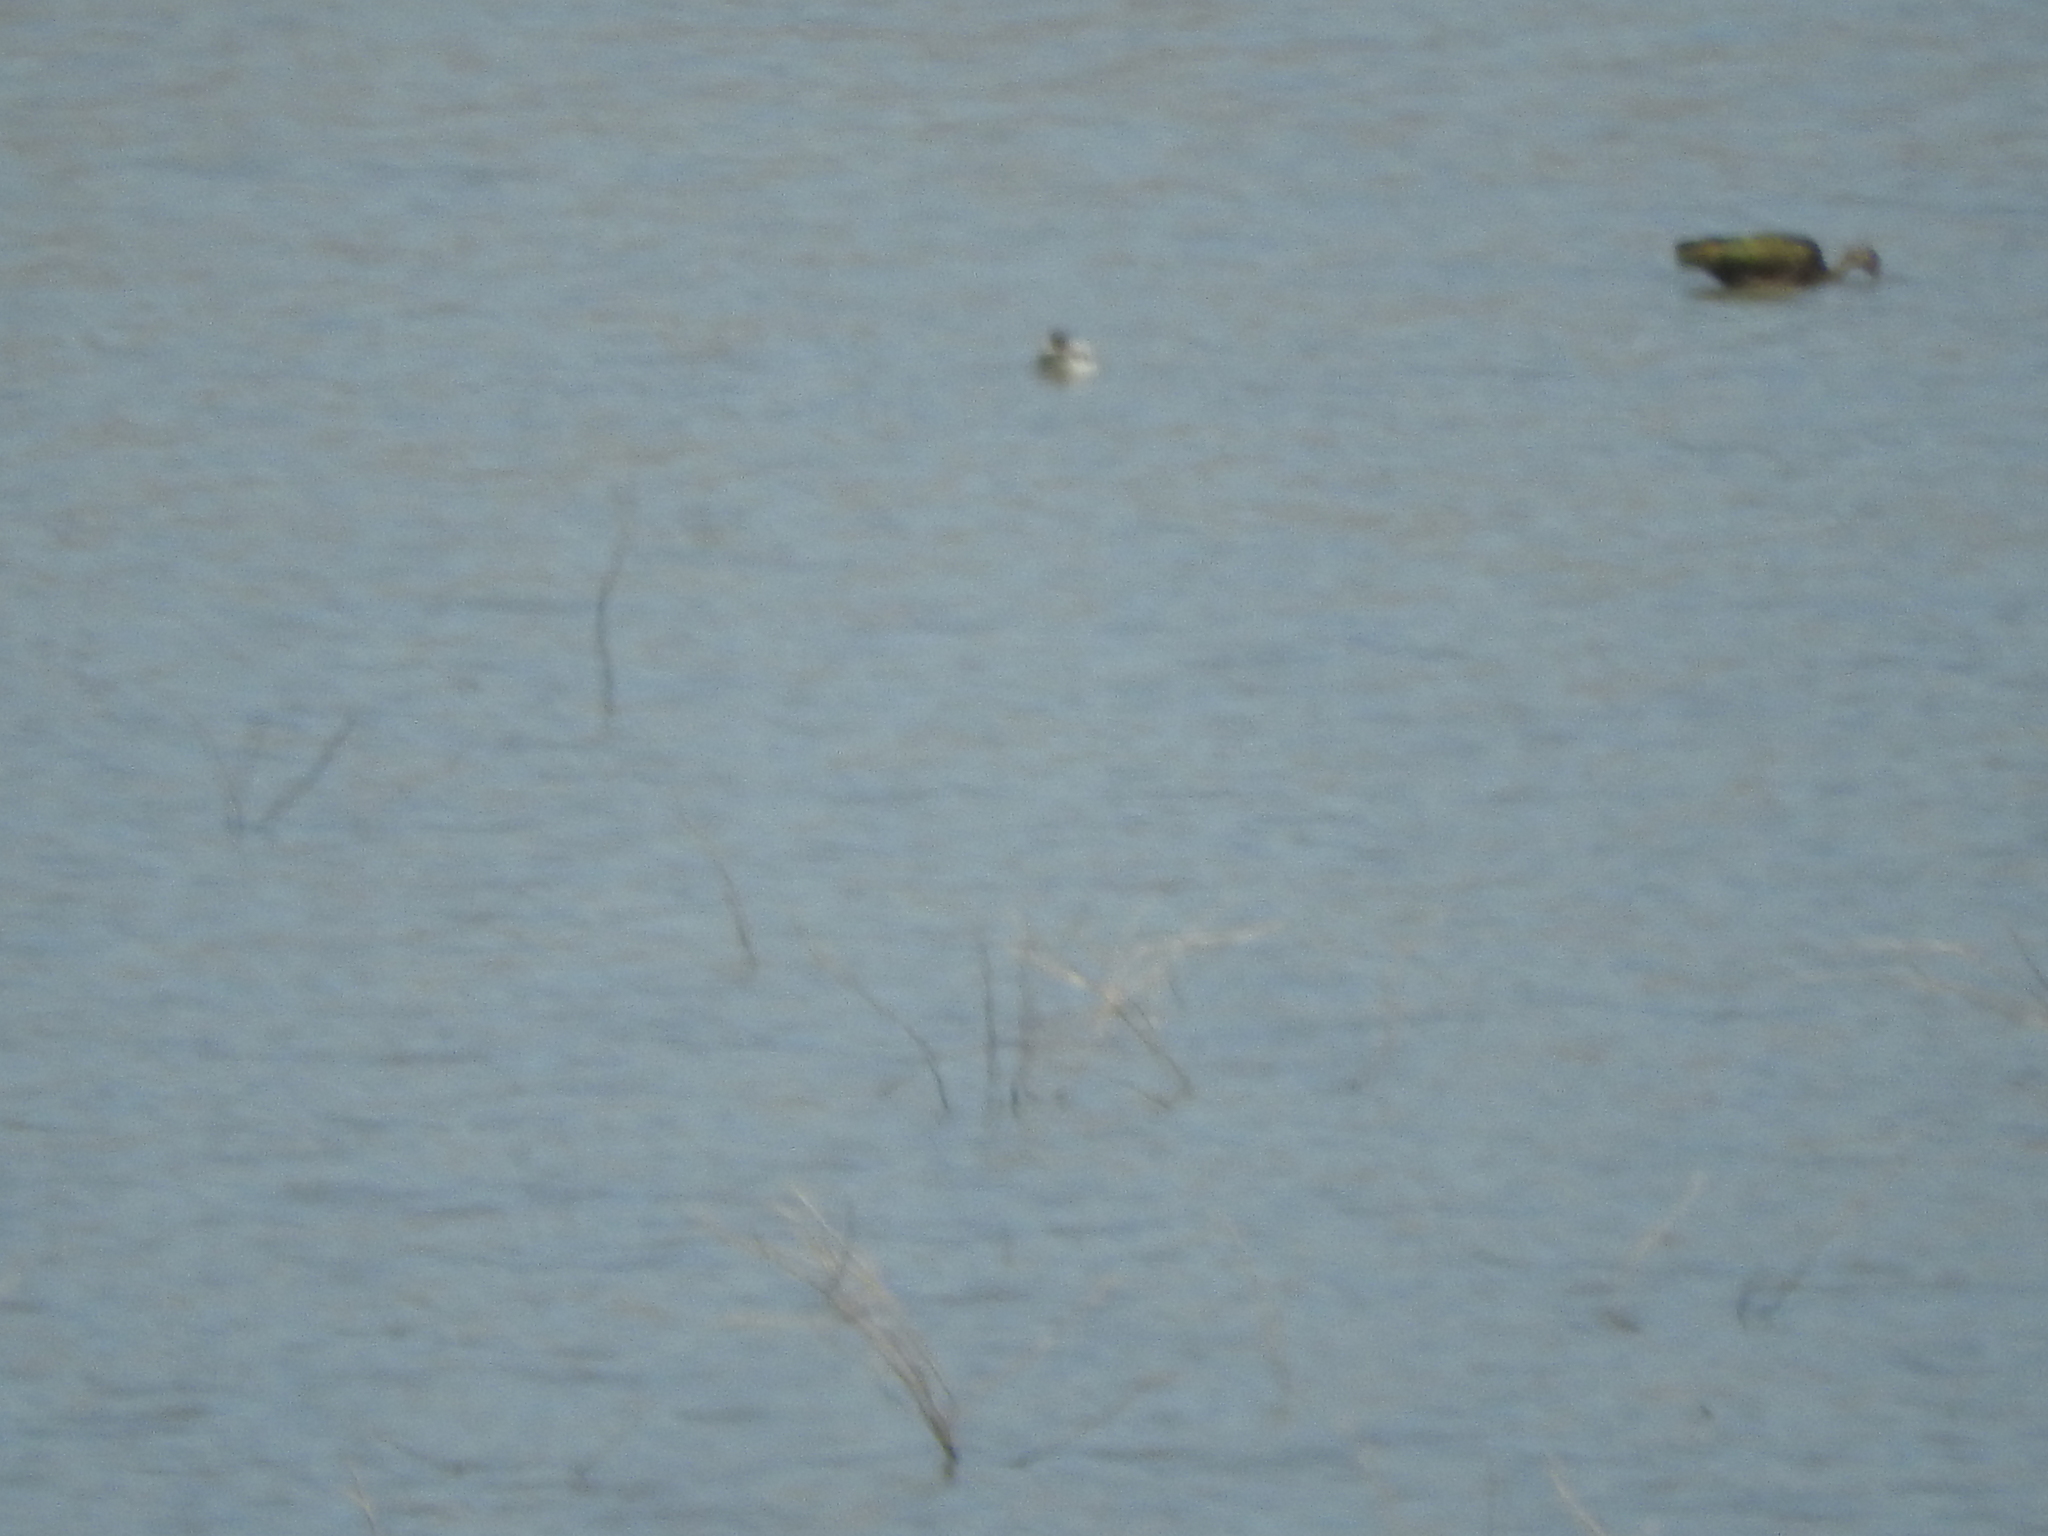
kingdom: Animalia
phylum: Chordata
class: Aves
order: Pelecaniformes
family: Threskiornithidae
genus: Plegadis
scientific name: Plegadis chihi
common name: White-faced ibis
